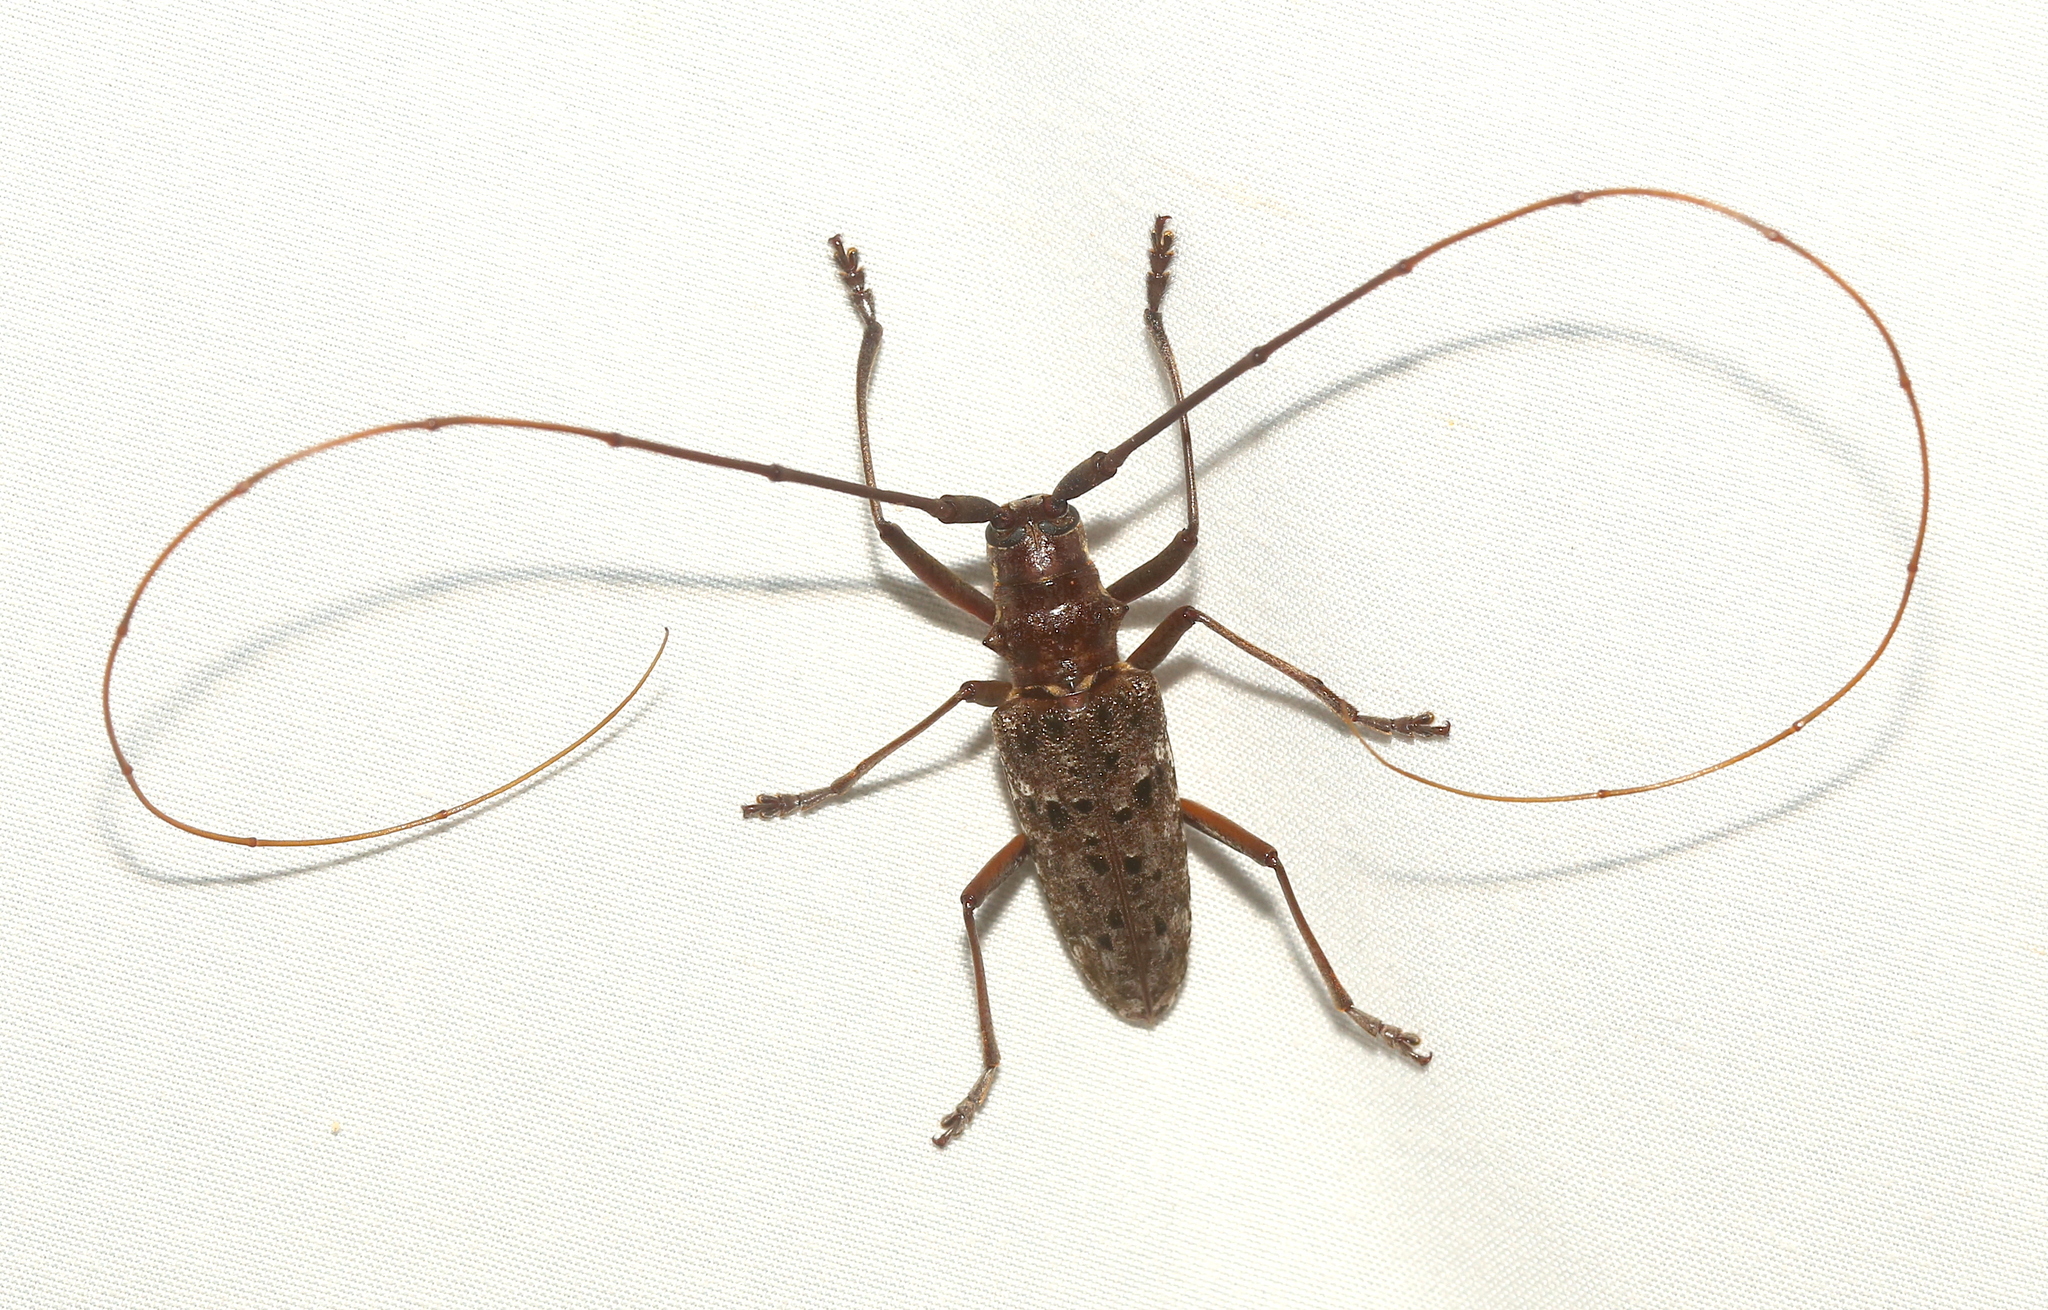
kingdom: Animalia
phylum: Arthropoda
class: Insecta
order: Coleoptera
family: Cerambycidae
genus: Monochamus
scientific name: Monochamus titillator
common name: Southern pine sawyer
